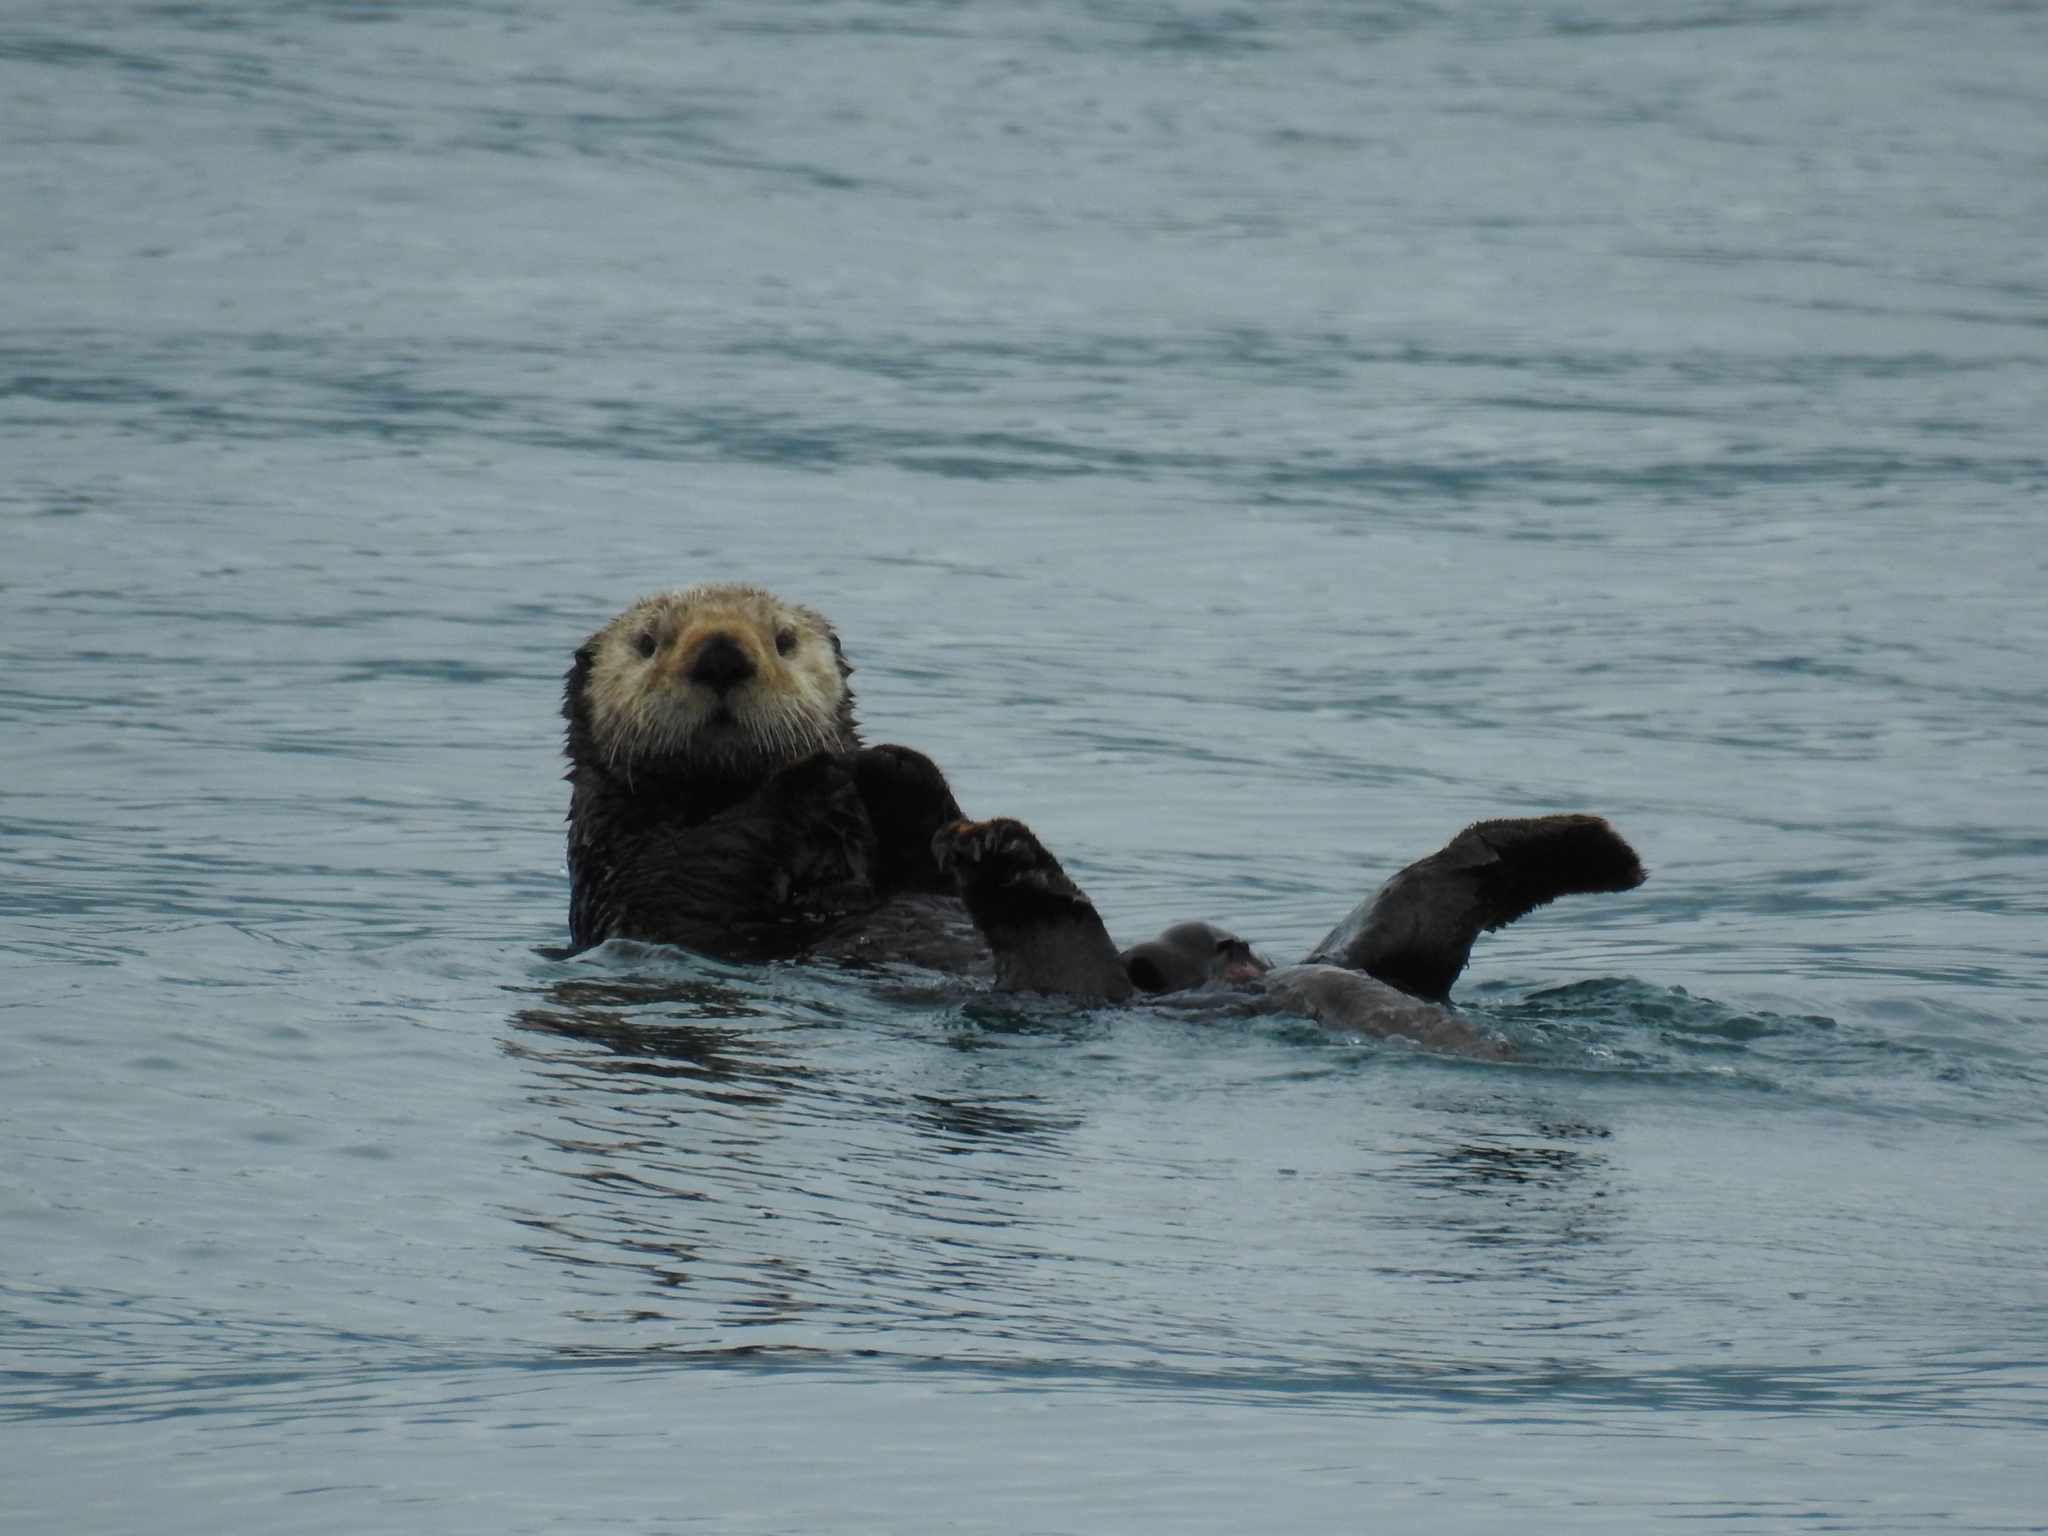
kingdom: Animalia
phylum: Chordata
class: Mammalia
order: Carnivora
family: Mustelidae
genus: Enhydra
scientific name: Enhydra lutris
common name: Sea otter
